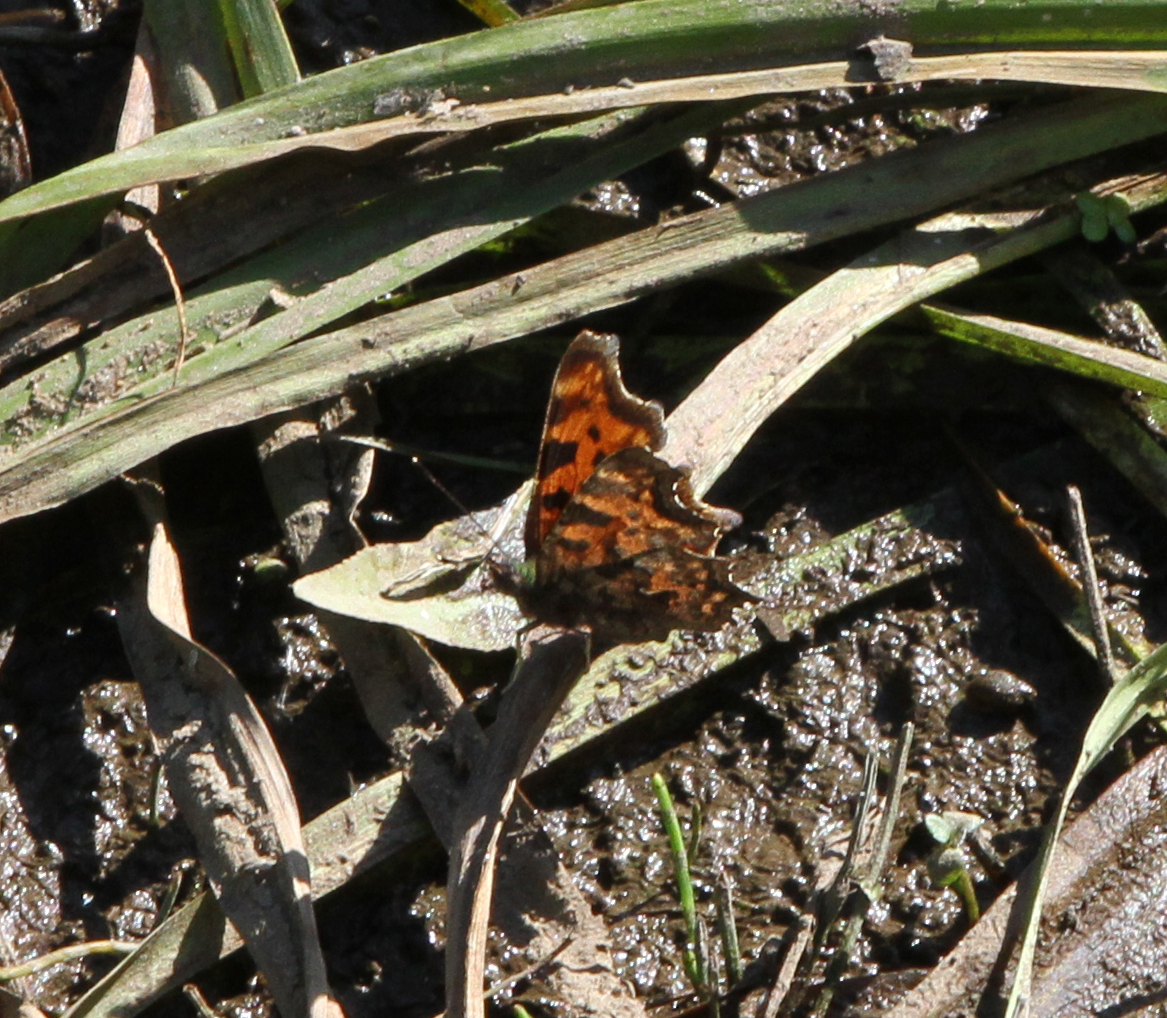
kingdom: Animalia
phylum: Arthropoda
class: Insecta
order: Lepidoptera
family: Nymphalidae
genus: Polygonia
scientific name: Polygonia c-album
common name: Comma
